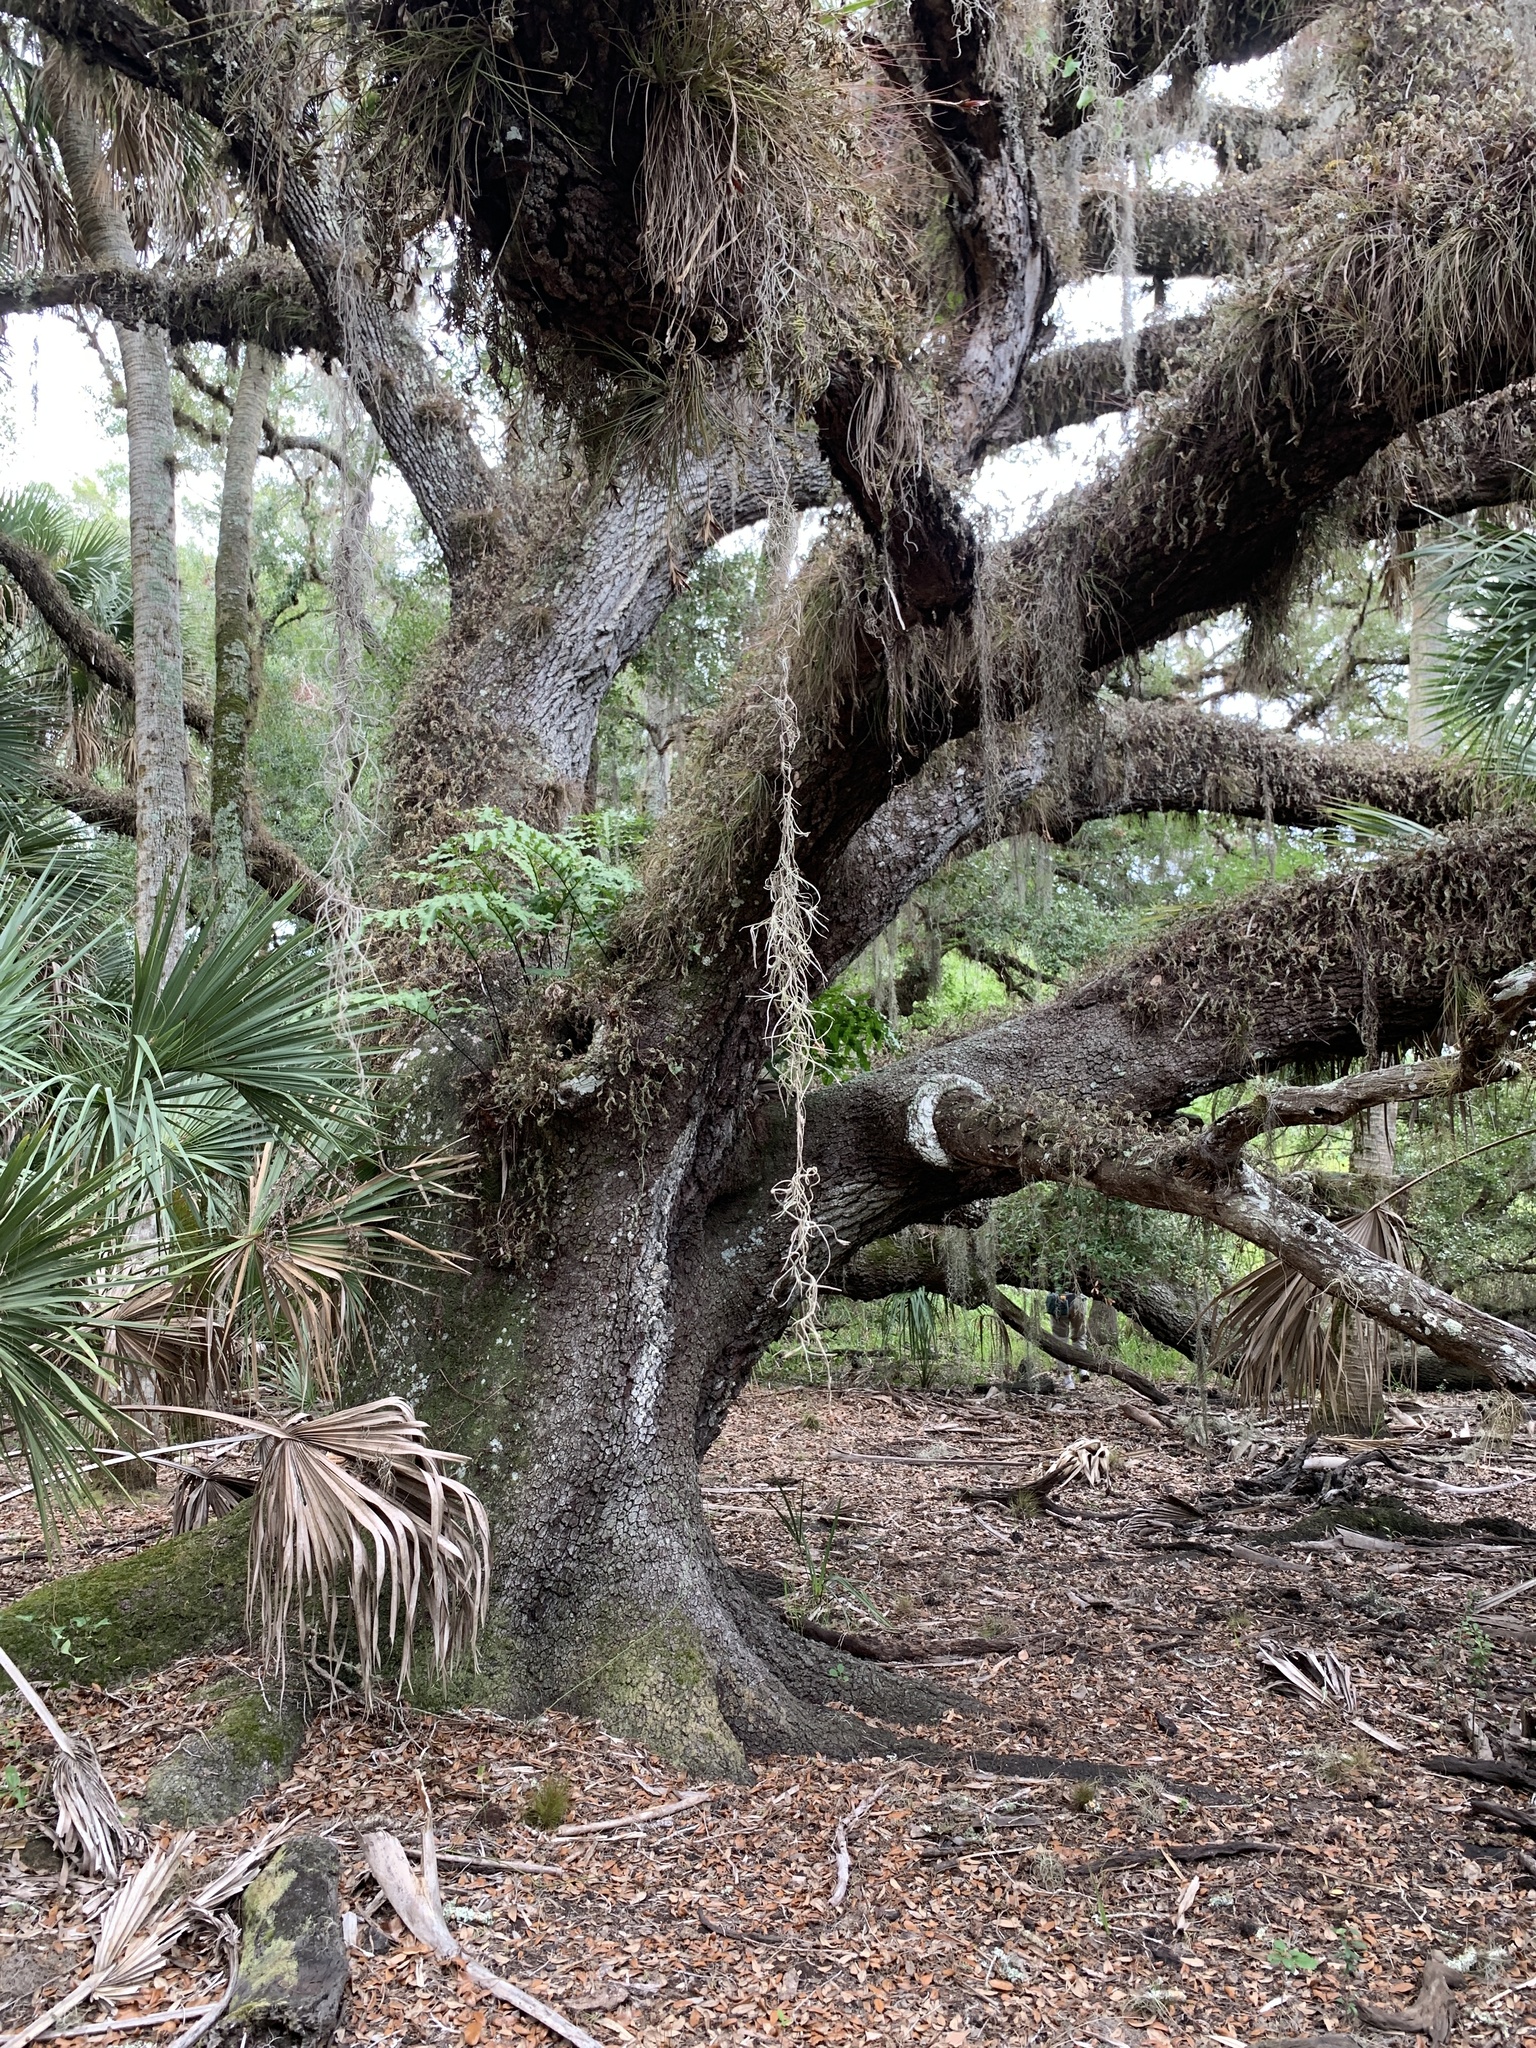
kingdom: Plantae
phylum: Tracheophyta
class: Magnoliopsida
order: Fagales
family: Fagaceae
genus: Quercus
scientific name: Quercus virginiana
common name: Southern live oak
